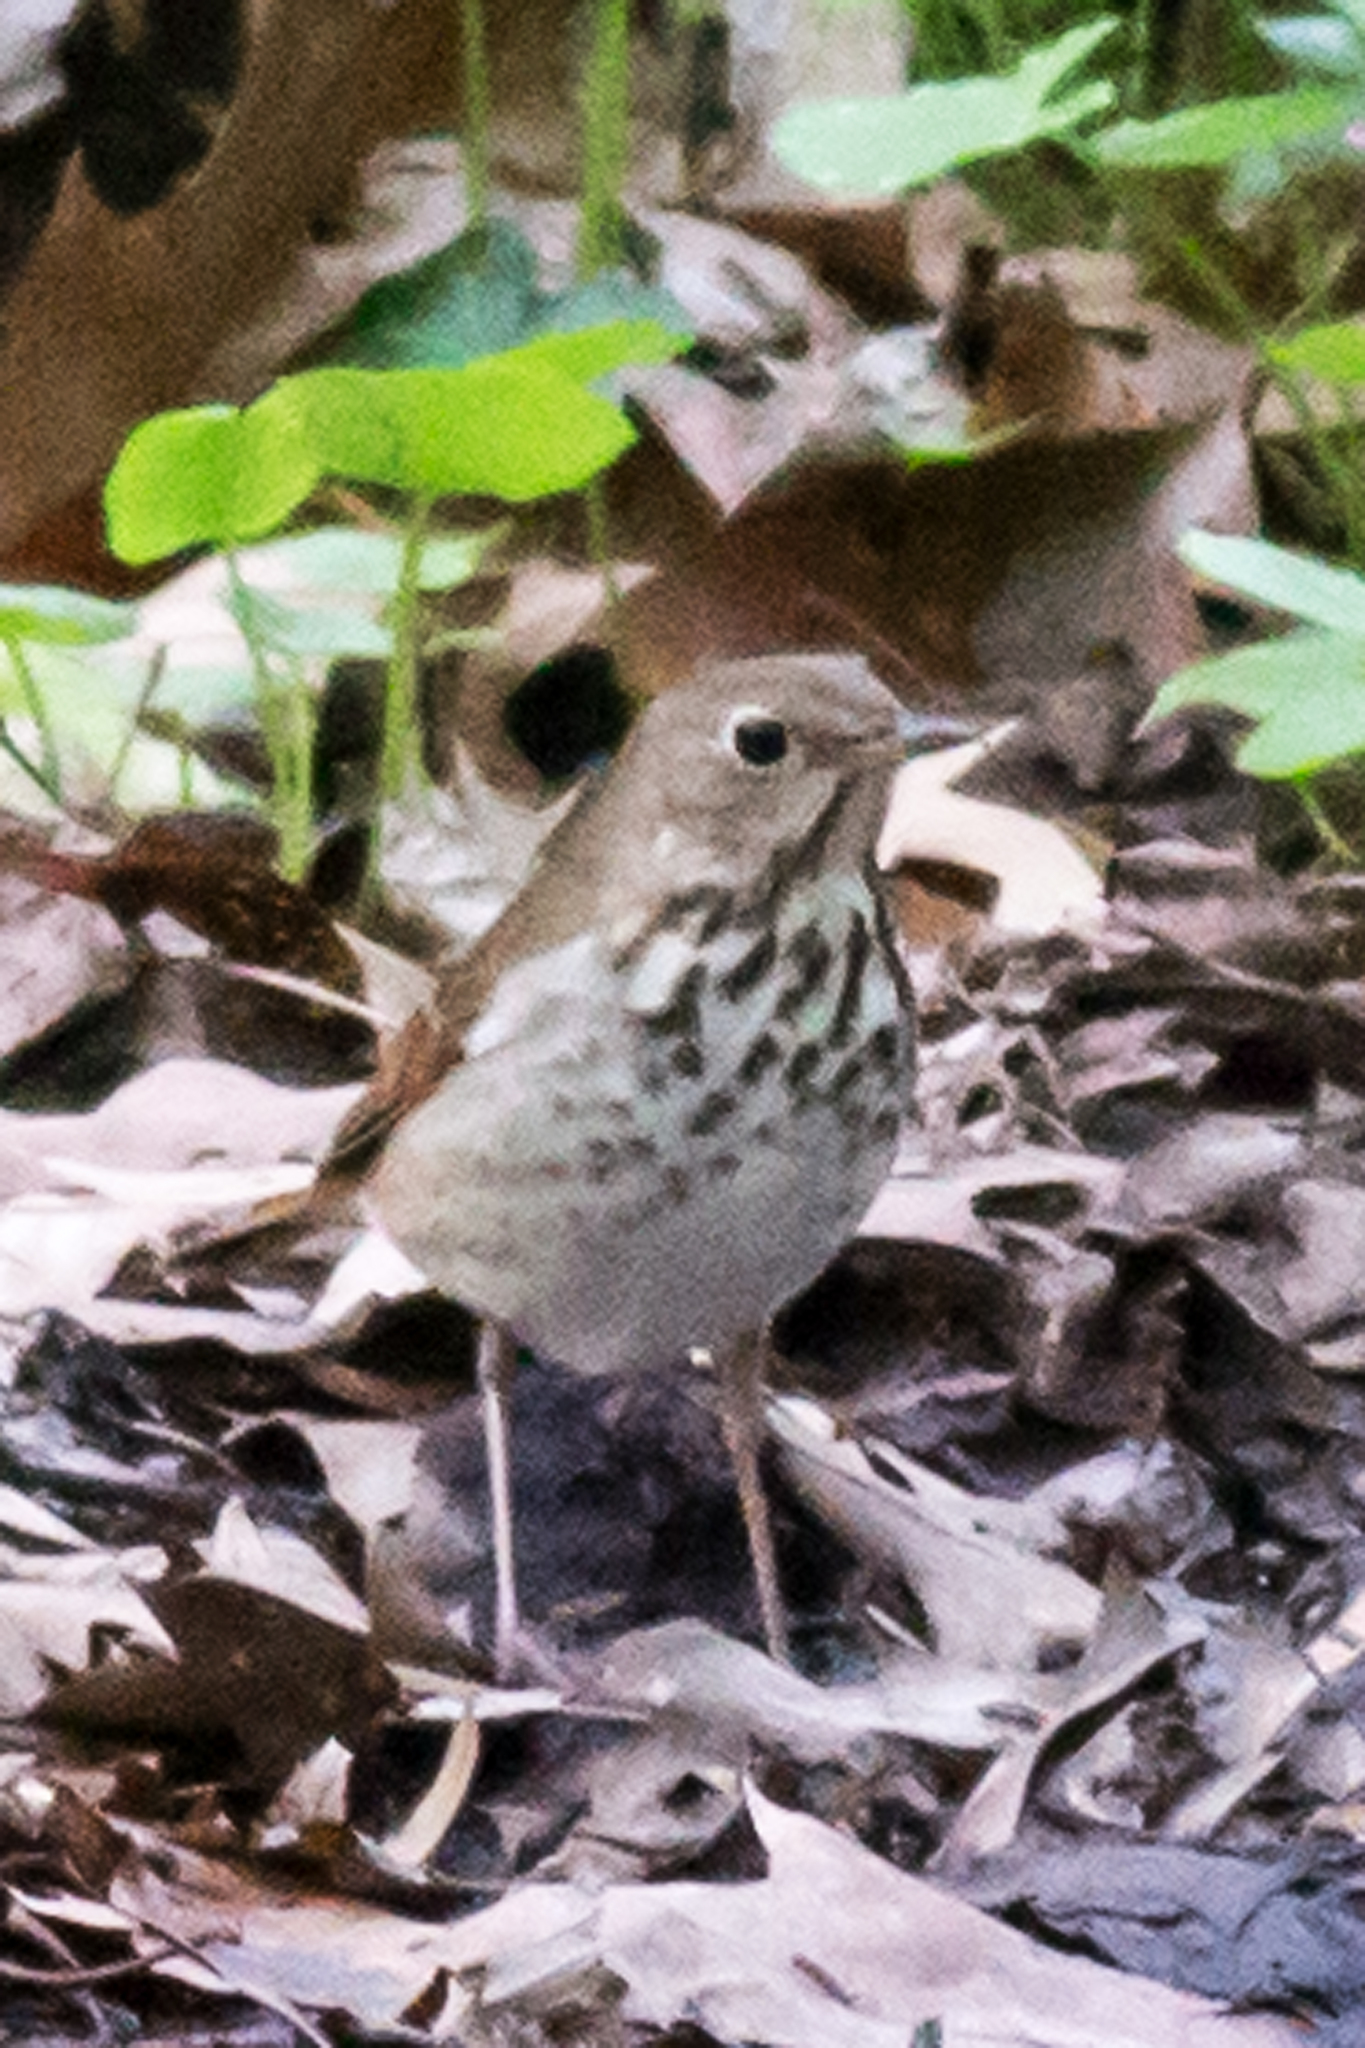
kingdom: Animalia
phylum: Chordata
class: Aves
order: Passeriformes
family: Turdidae
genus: Catharus
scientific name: Catharus guttatus
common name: Hermit thrush
